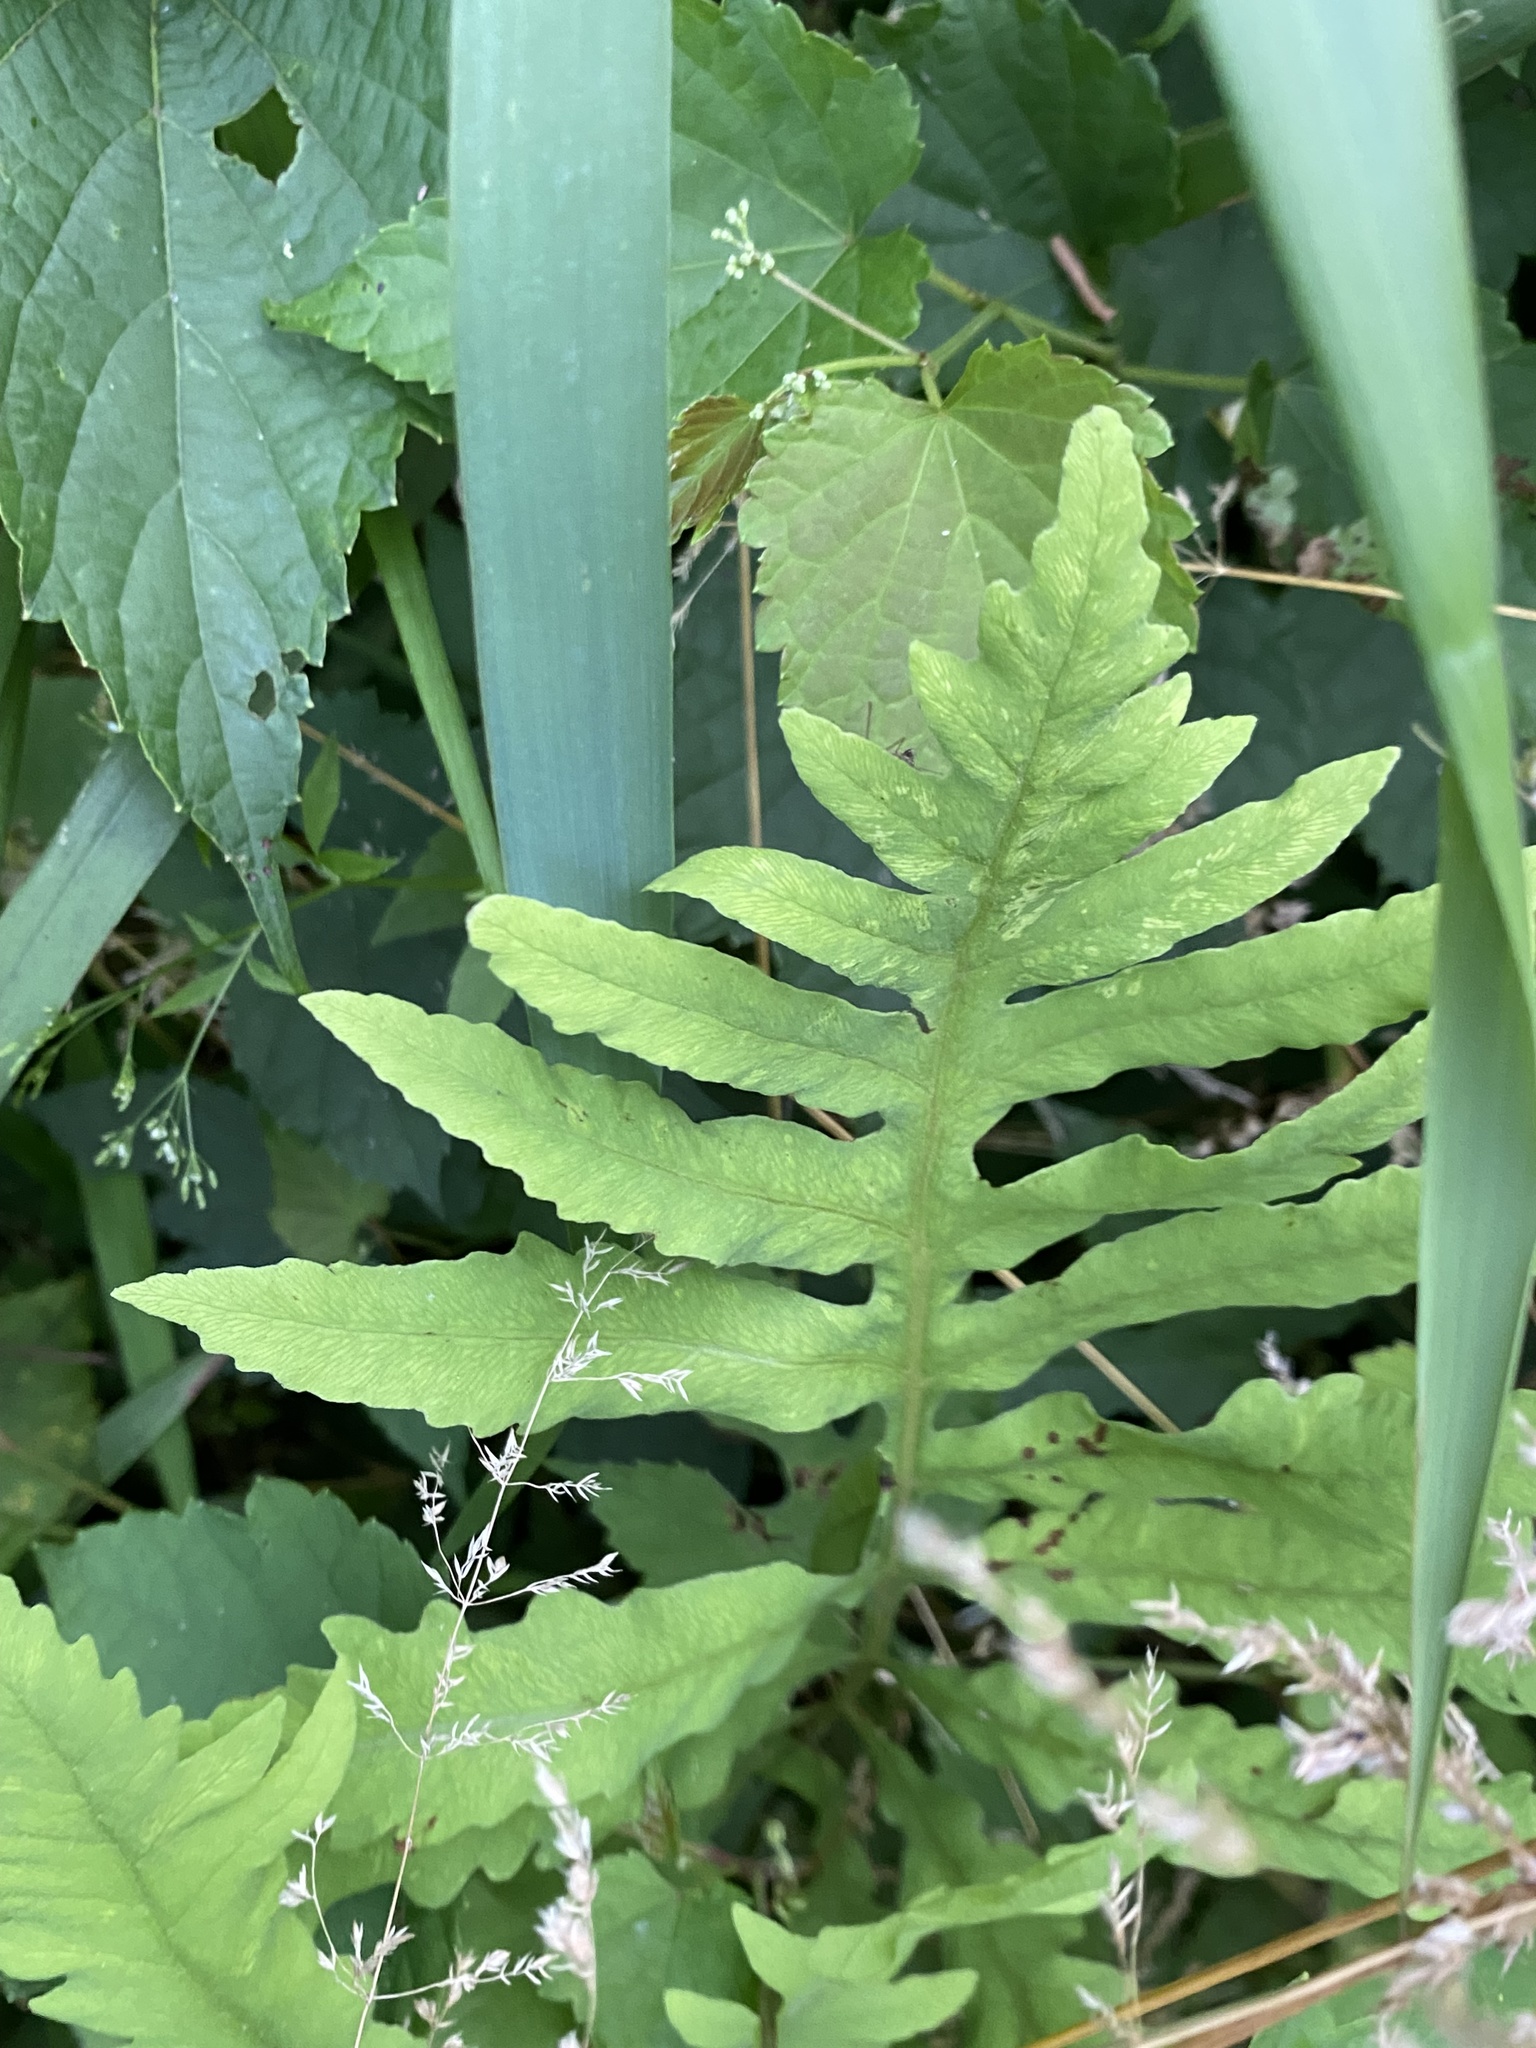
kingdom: Plantae
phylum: Tracheophyta
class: Polypodiopsida
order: Polypodiales
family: Onocleaceae
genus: Onoclea
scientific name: Onoclea sensibilis
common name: Sensitive fern
